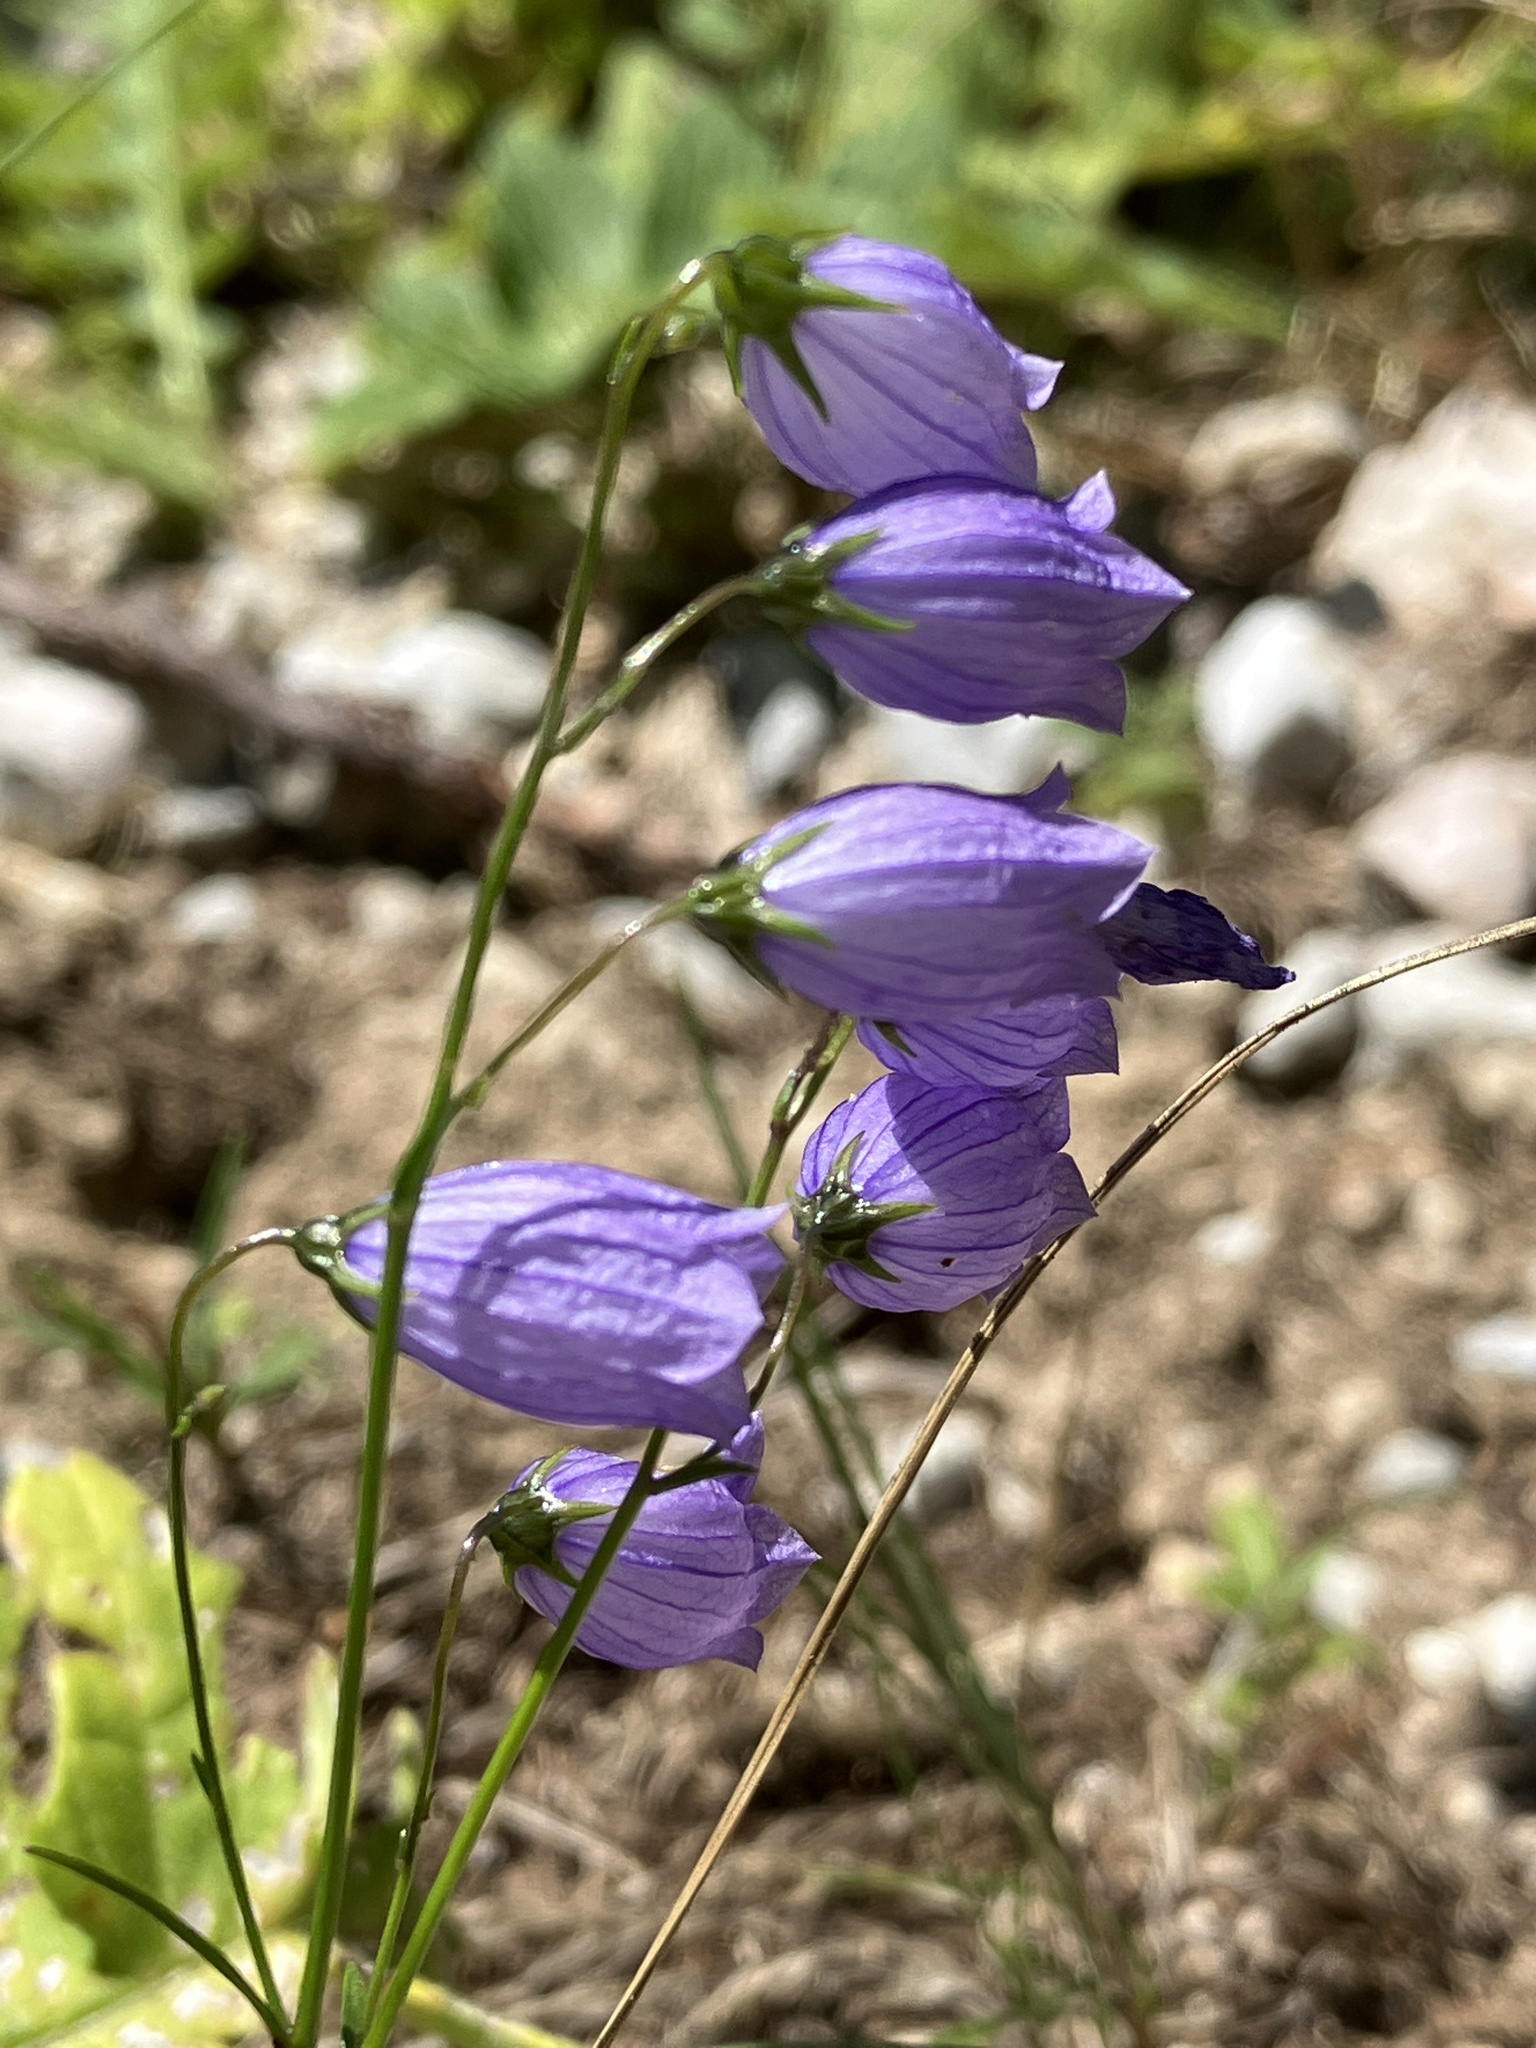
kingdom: Plantae
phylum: Tracheophyta
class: Magnoliopsida
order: Asterales
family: Campanulaceae
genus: Campanula
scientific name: Campanula cespitosa
